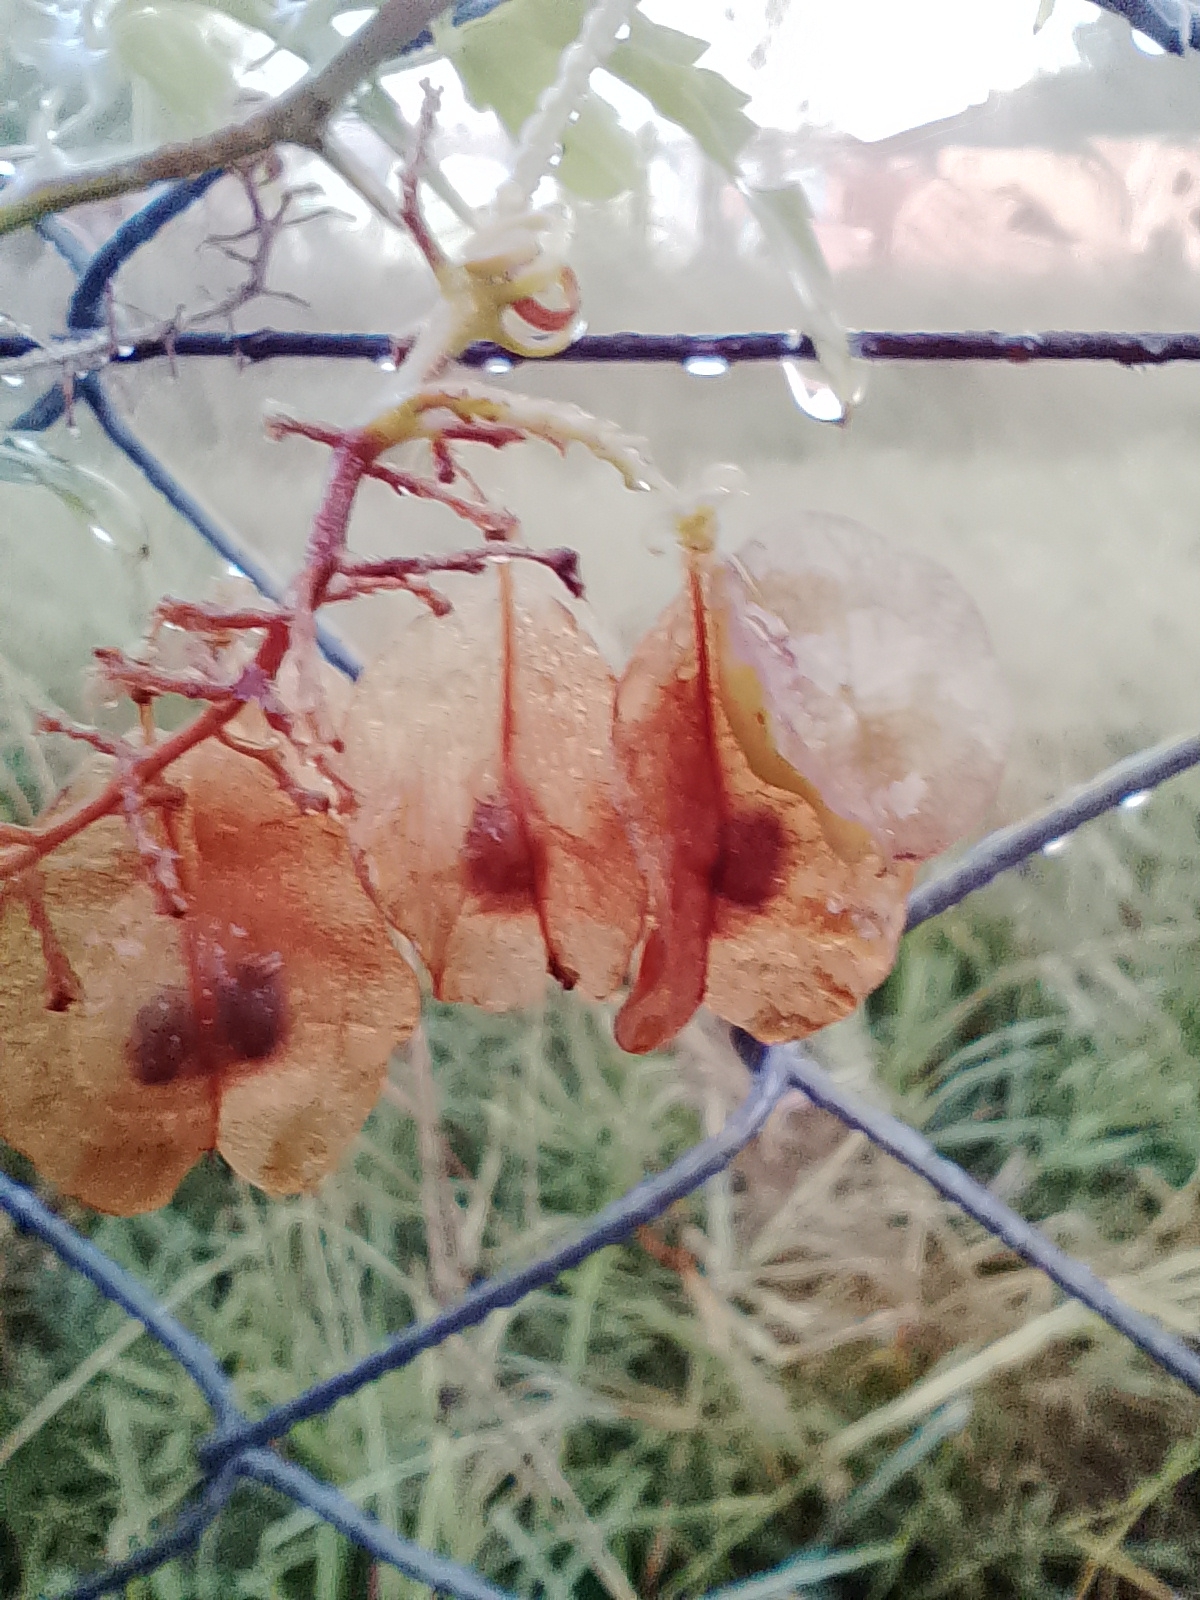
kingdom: Plantae
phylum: Tracheophyta
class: Magnoliopsida
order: Sapindales
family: Sapindaceae
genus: Urvillea
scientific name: Urvillea uniloba
